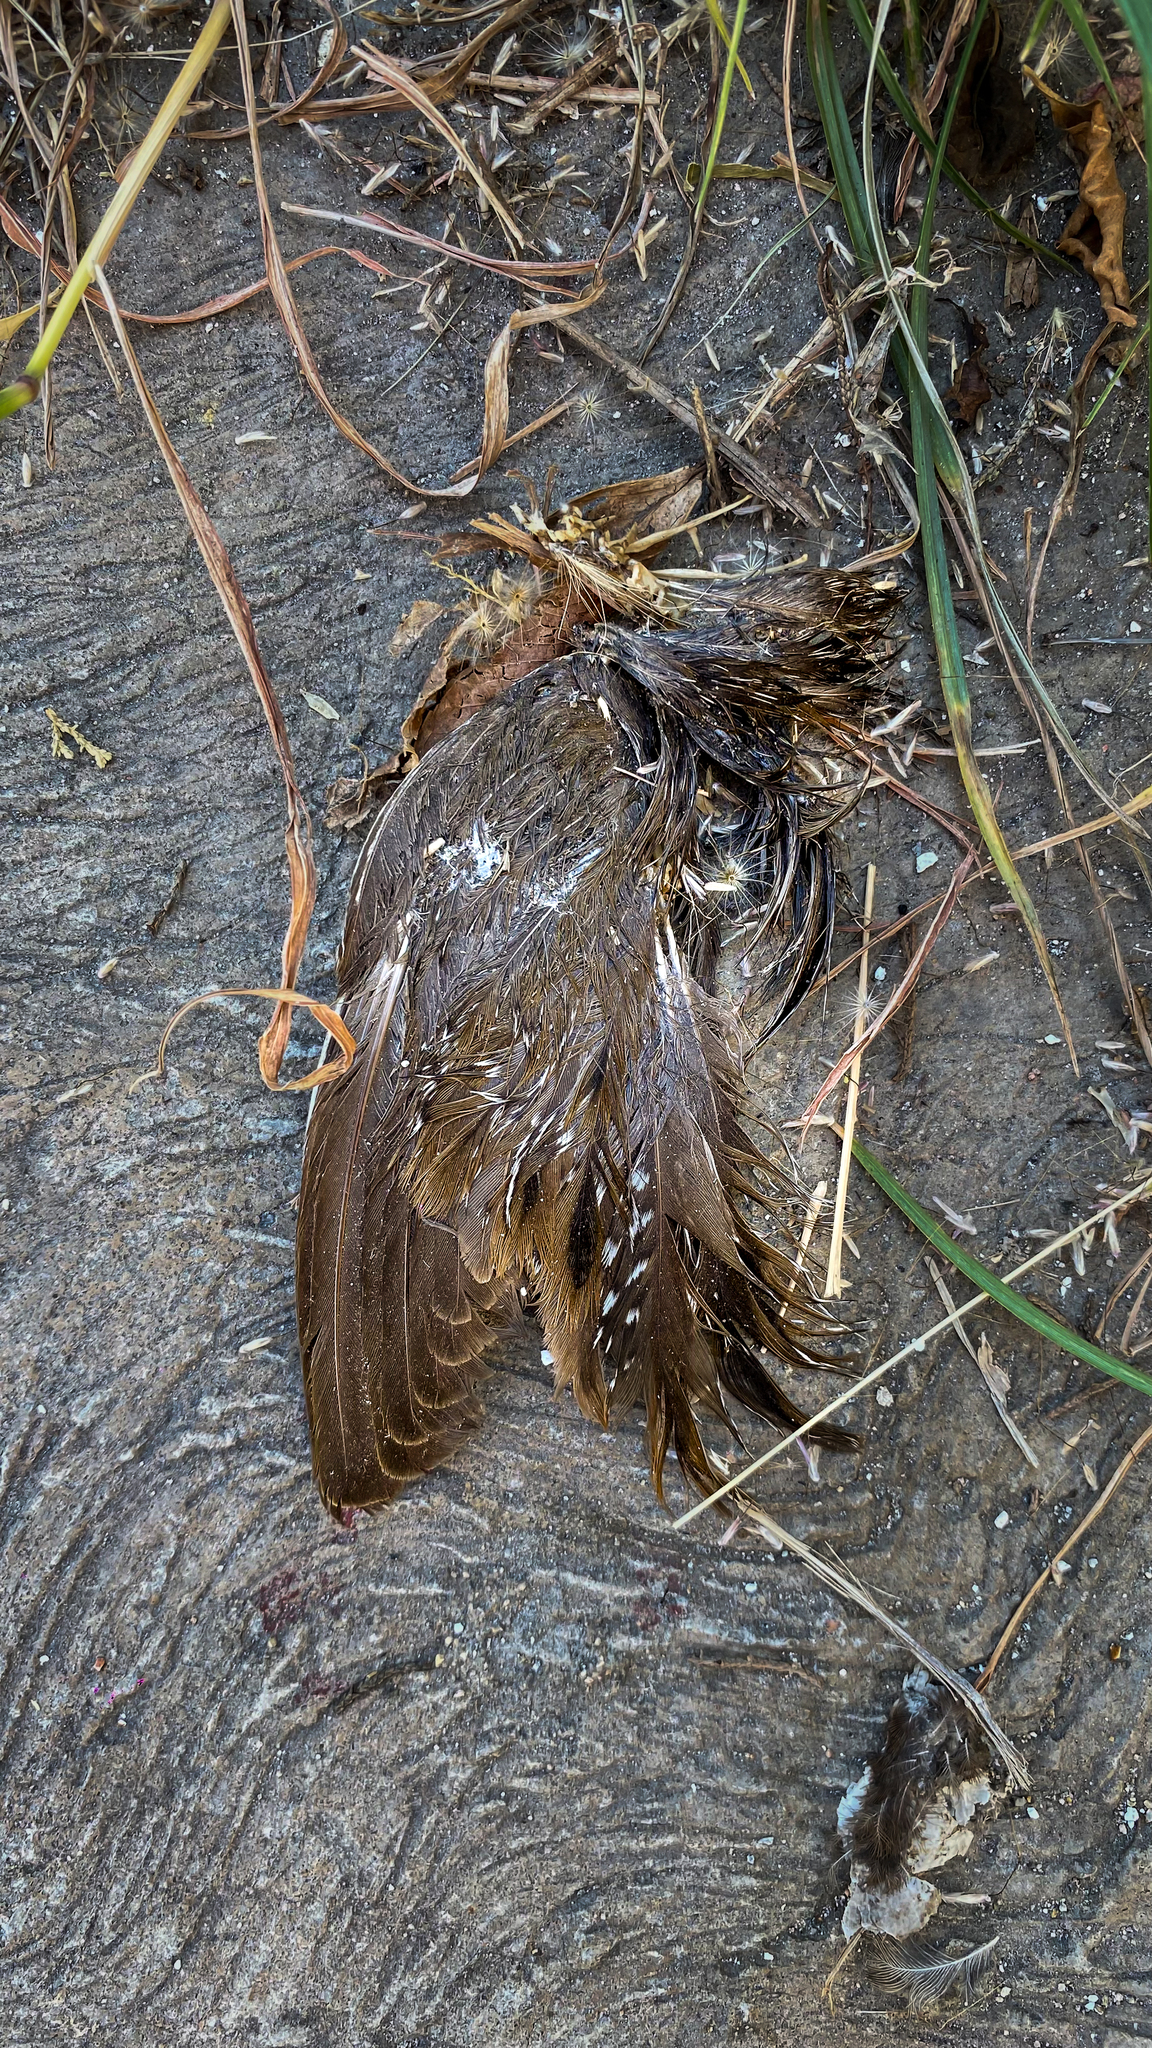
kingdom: Animalia
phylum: Chordata
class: Aves
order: Gruiformes
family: Rallidae
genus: Porzana
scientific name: Porzana carolina
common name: Sora
